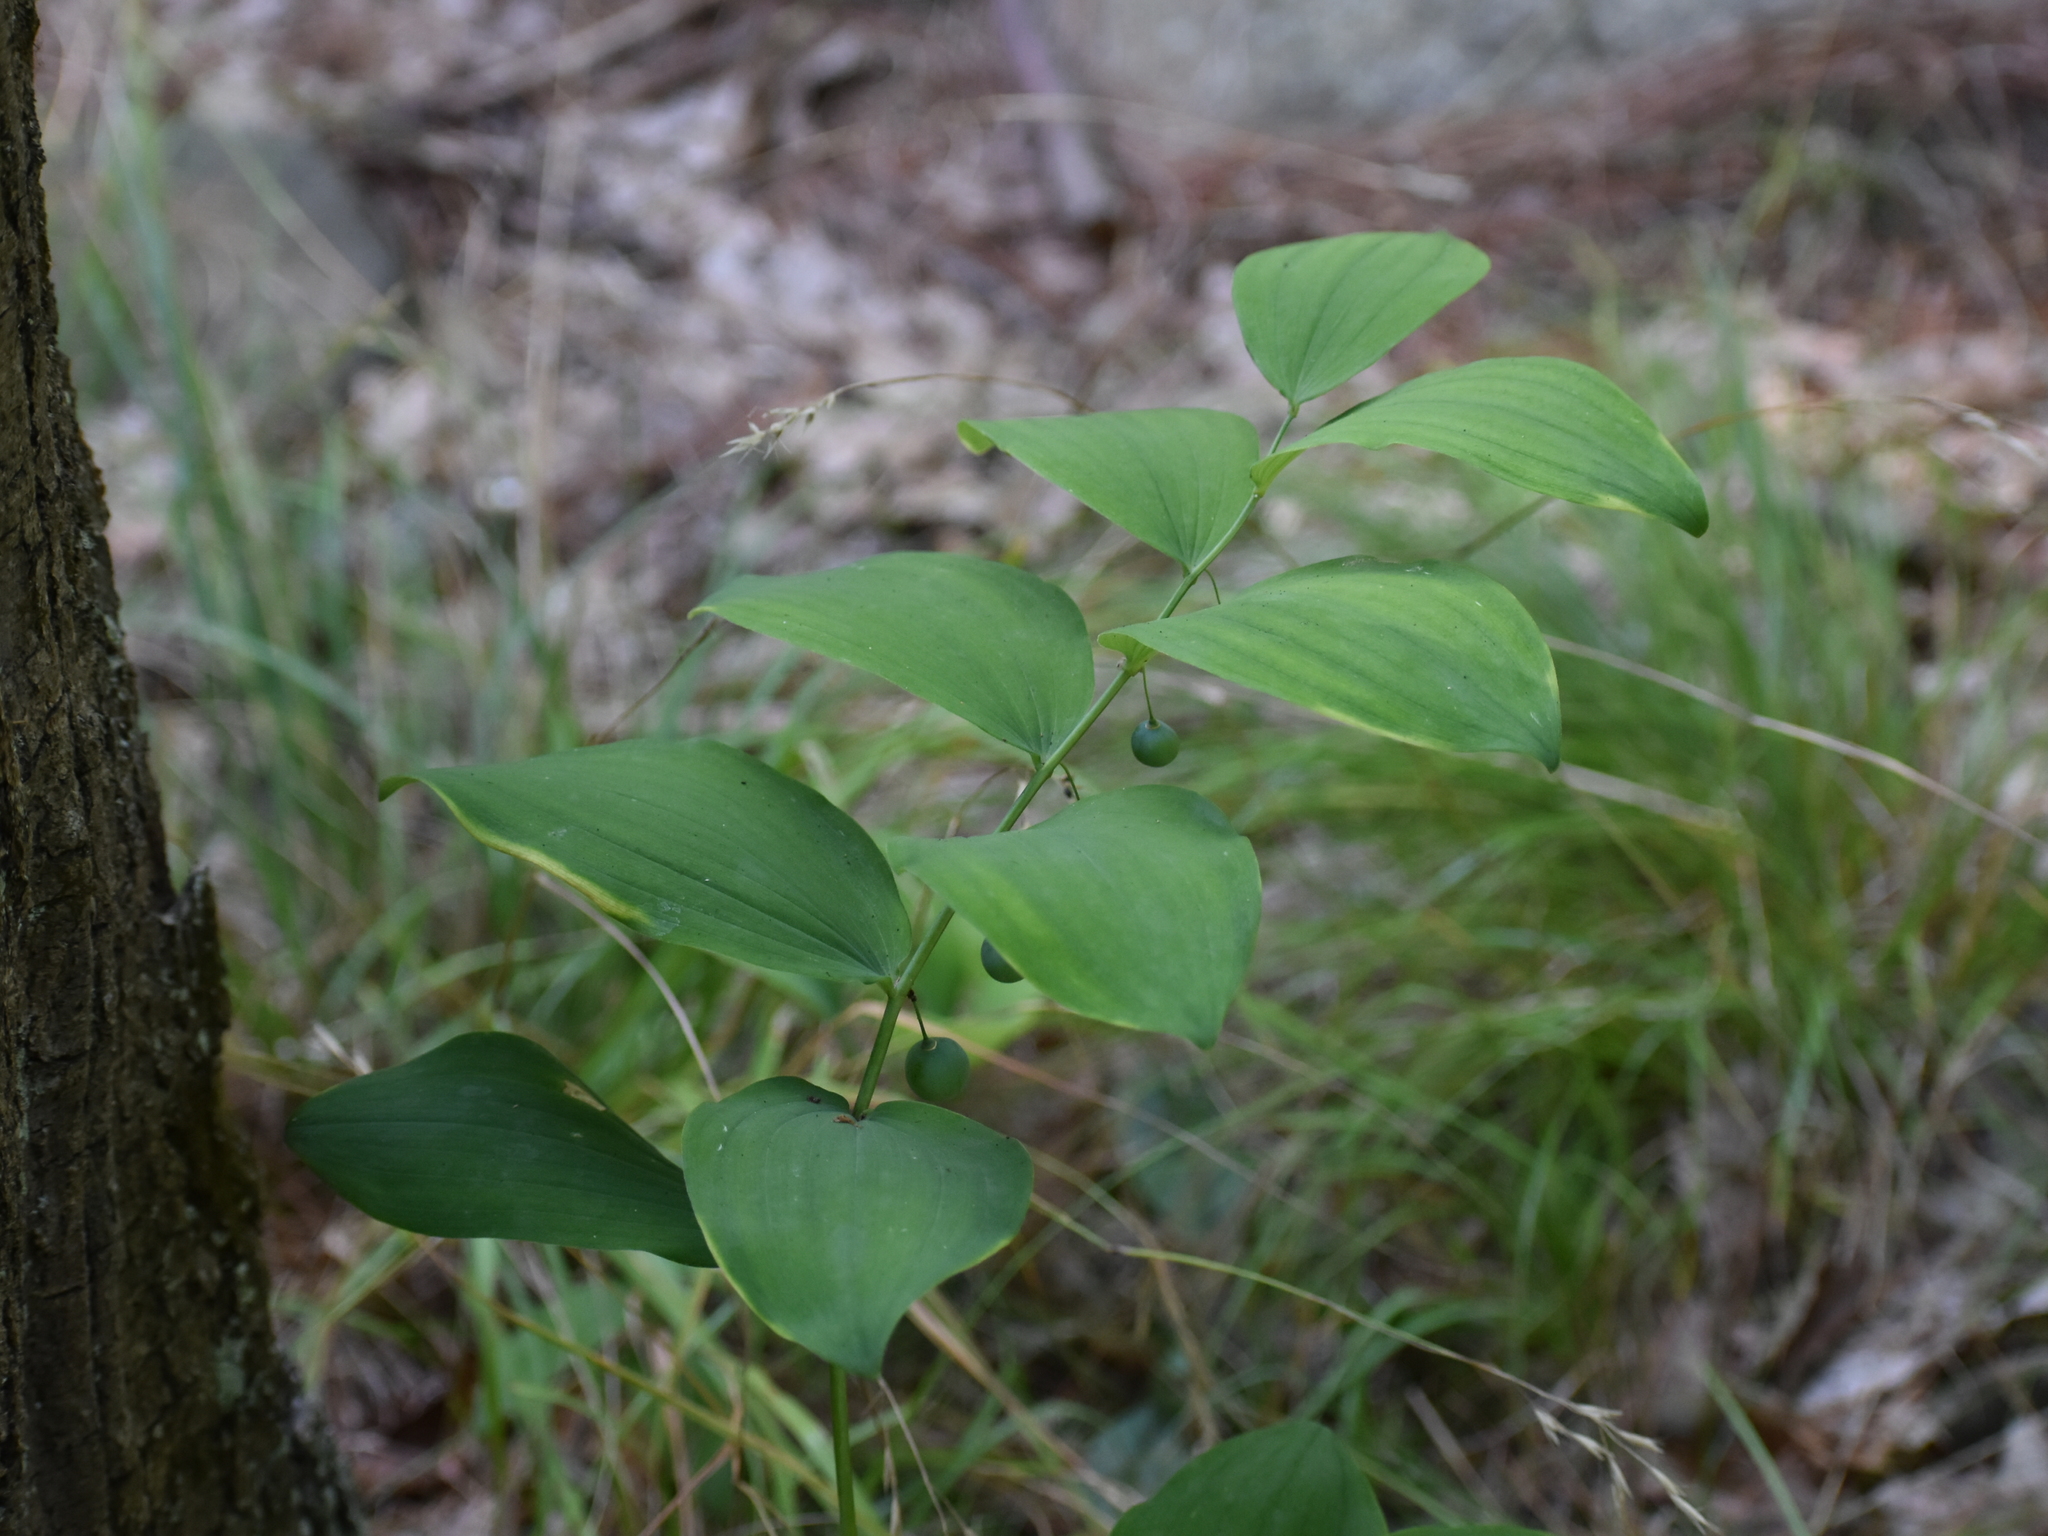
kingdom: Plantae
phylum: Tracheophyta
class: Liliopsida
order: Asparagales
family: Asparagaceae
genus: Polygonatum
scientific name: Polygonatum pubescens
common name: Downy solomon's seal
